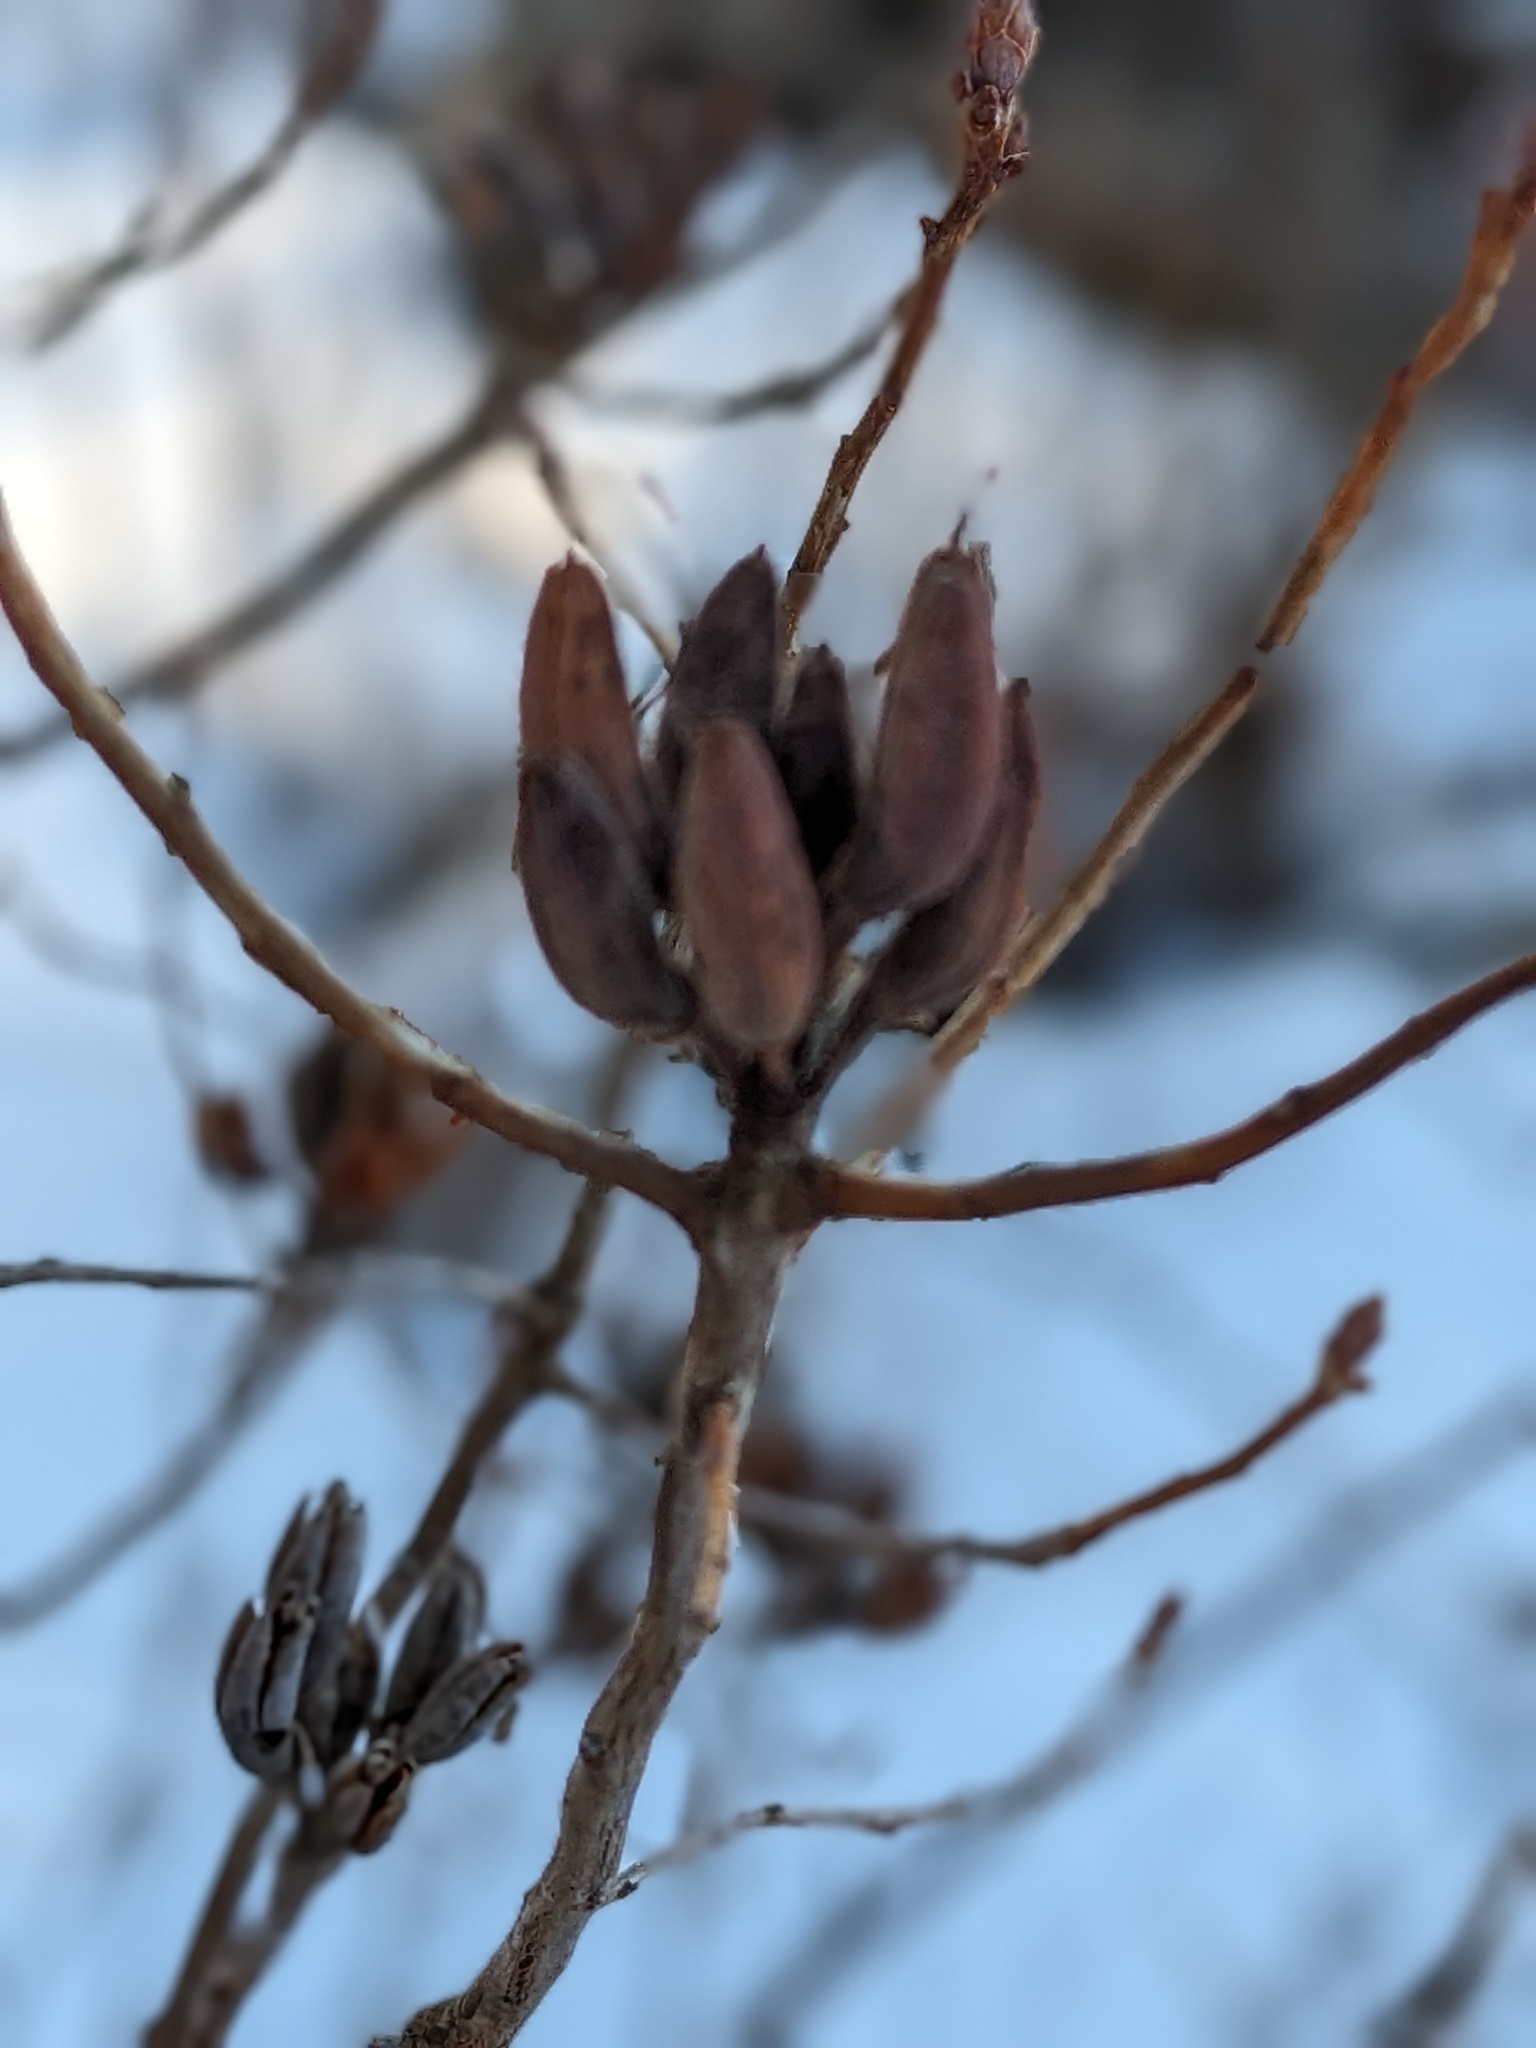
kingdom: Plantae
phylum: Tracheophyta
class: Magnoliopsida
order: Ericales
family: Ericaceae
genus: Rhododendron
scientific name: Rhododendron canadense
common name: Rhodora
